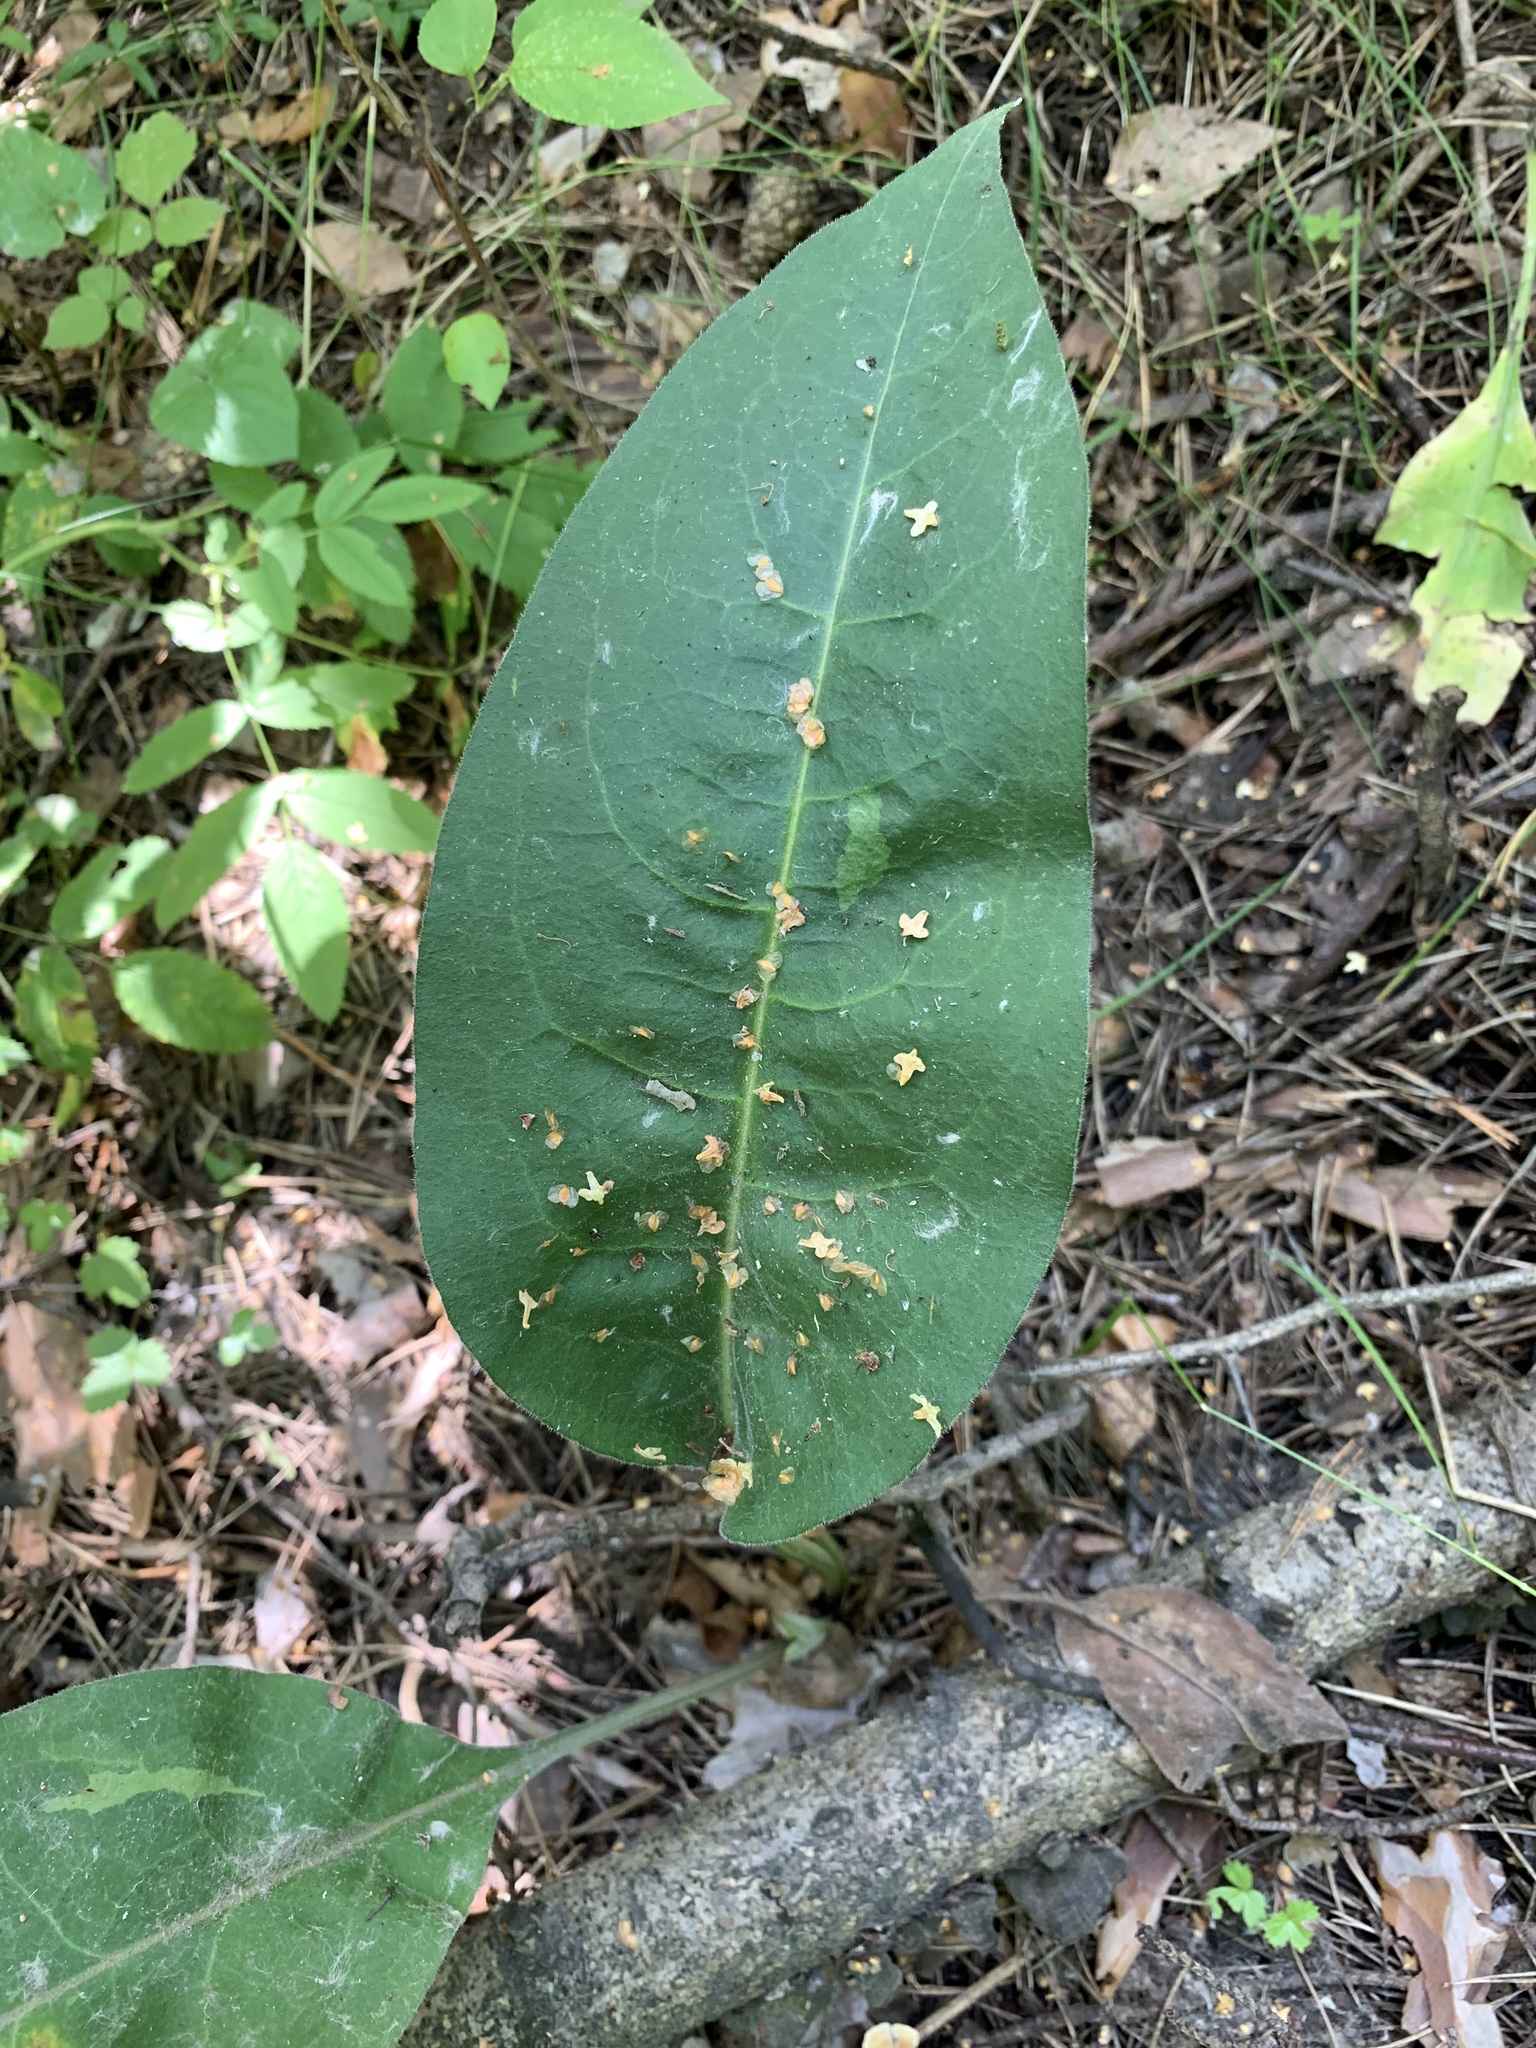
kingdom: Plantae
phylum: Tracheophyta
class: Magnoliopsida
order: Boraginales
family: Boraginaceae
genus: Pulmonaria
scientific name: Pulmonaria mollis
